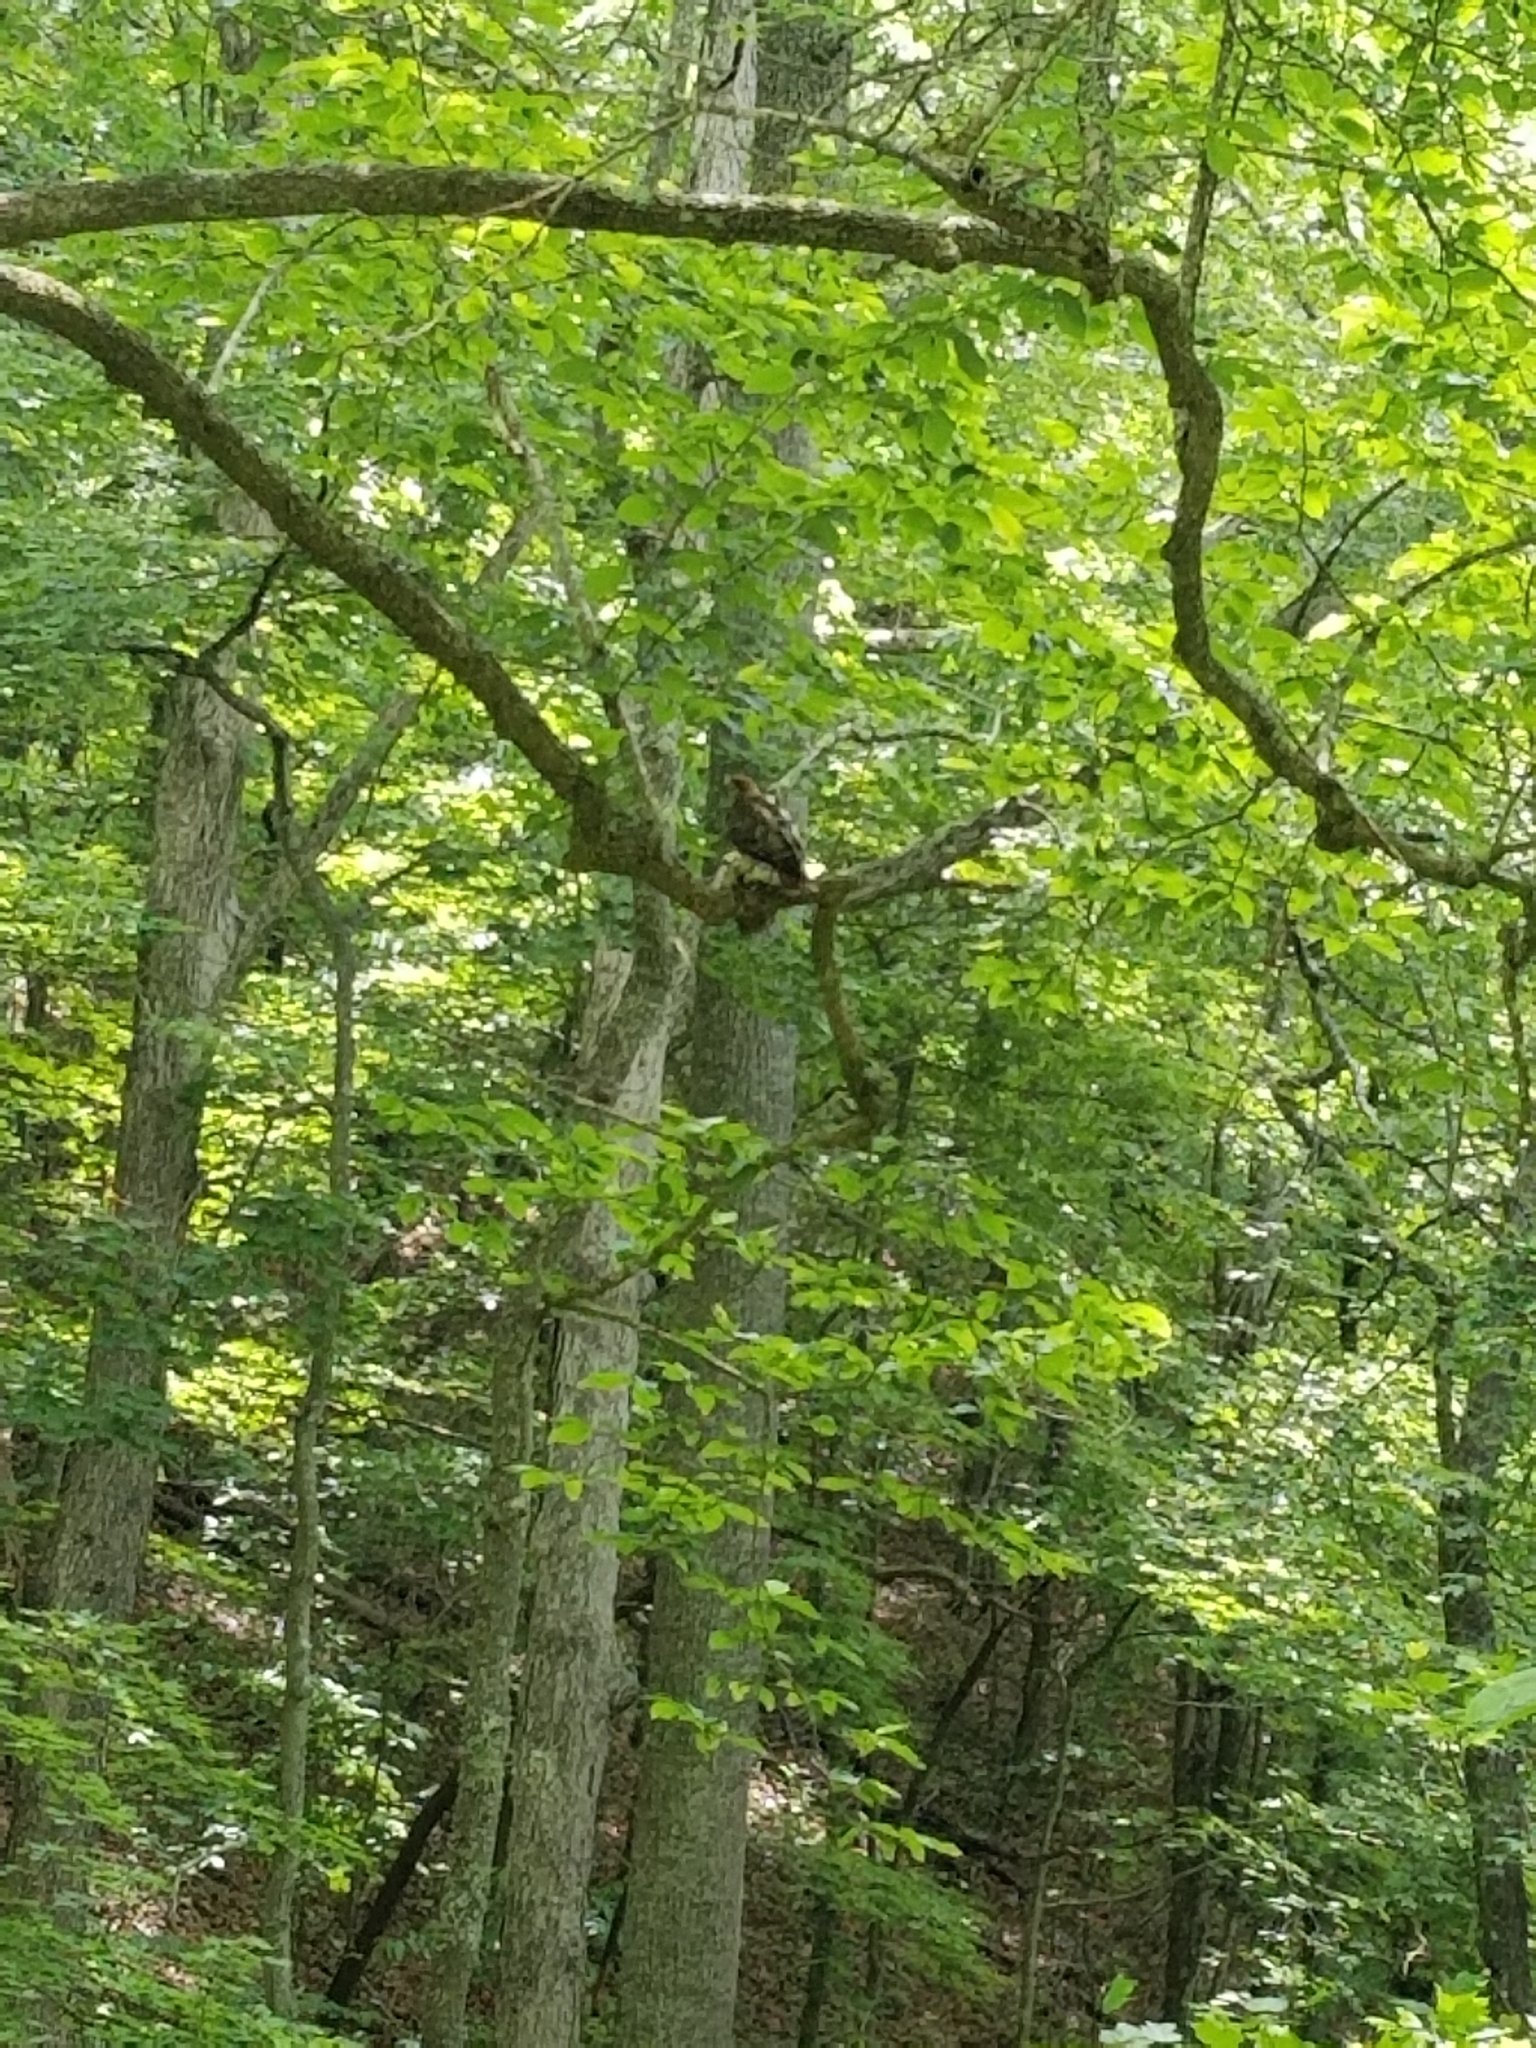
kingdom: Animalia
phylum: Chordata
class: Aves
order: Accipitriformes
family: Accipitridae
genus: Buteo
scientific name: Buteo jamaicensis
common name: Red-tailed hawk
